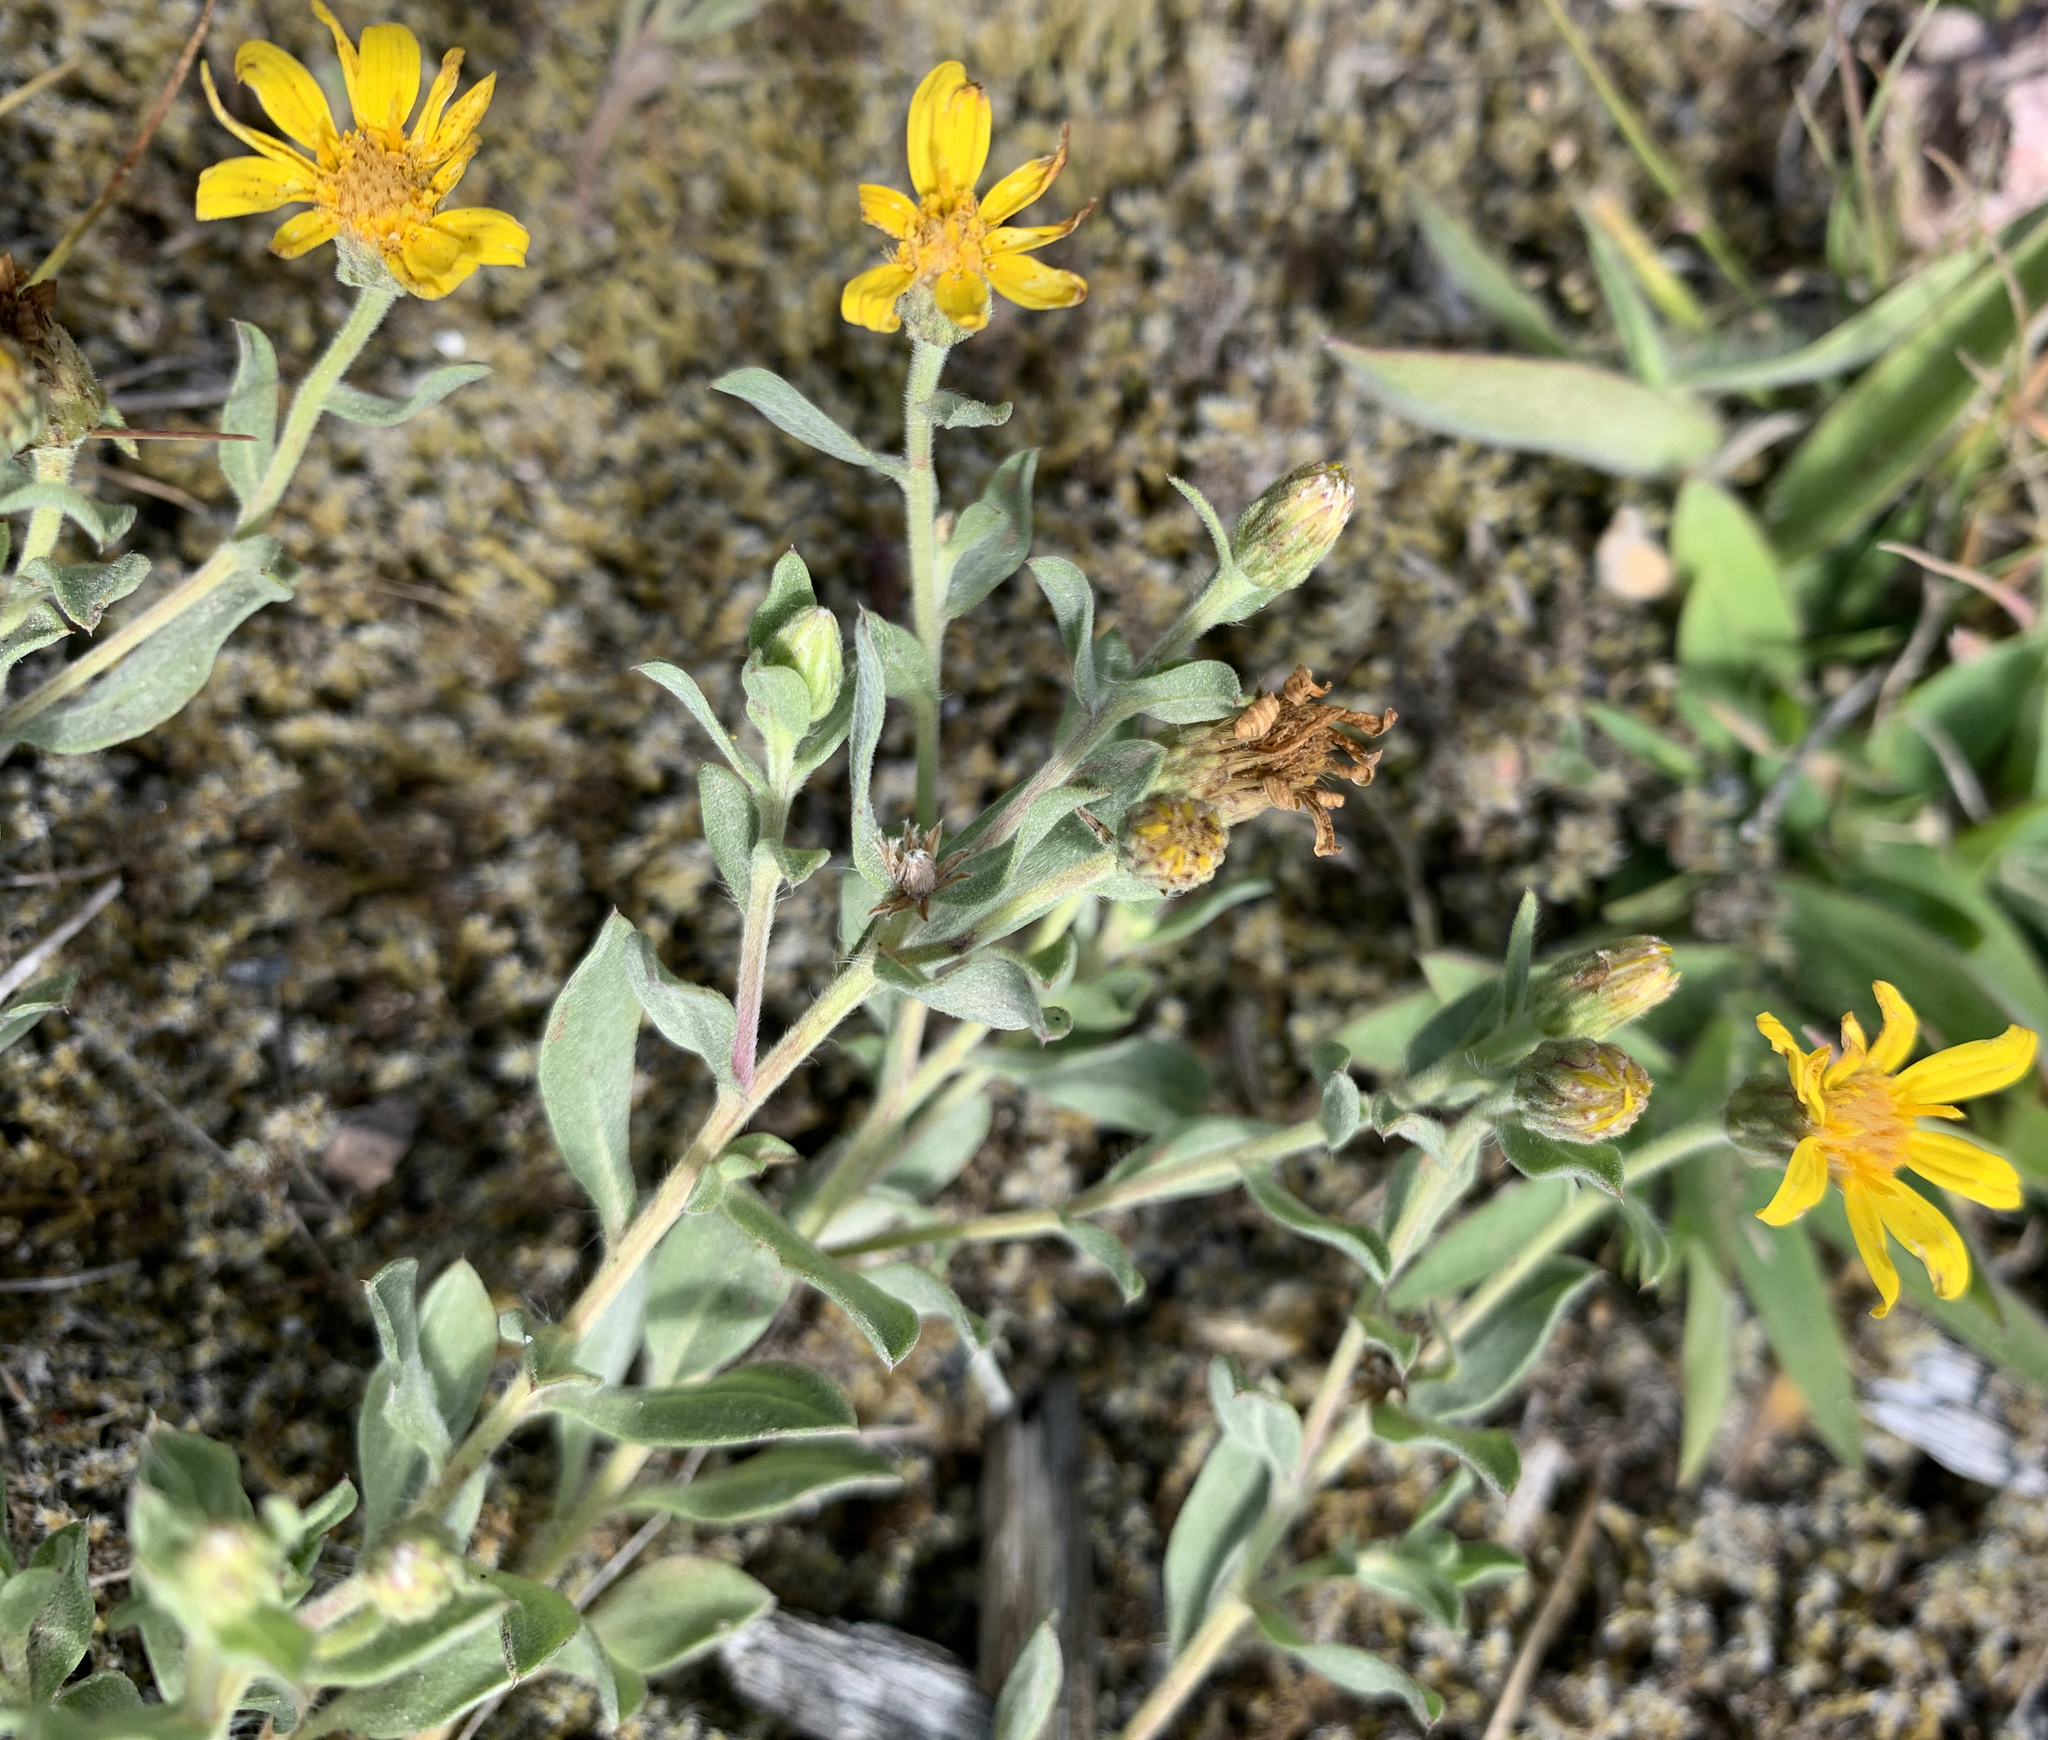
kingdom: Plantae
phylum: Tracheophyta
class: Magnoliopsida
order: Asterales
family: Asteraceae
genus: Heterotheca
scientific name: Heterotheca depressa
